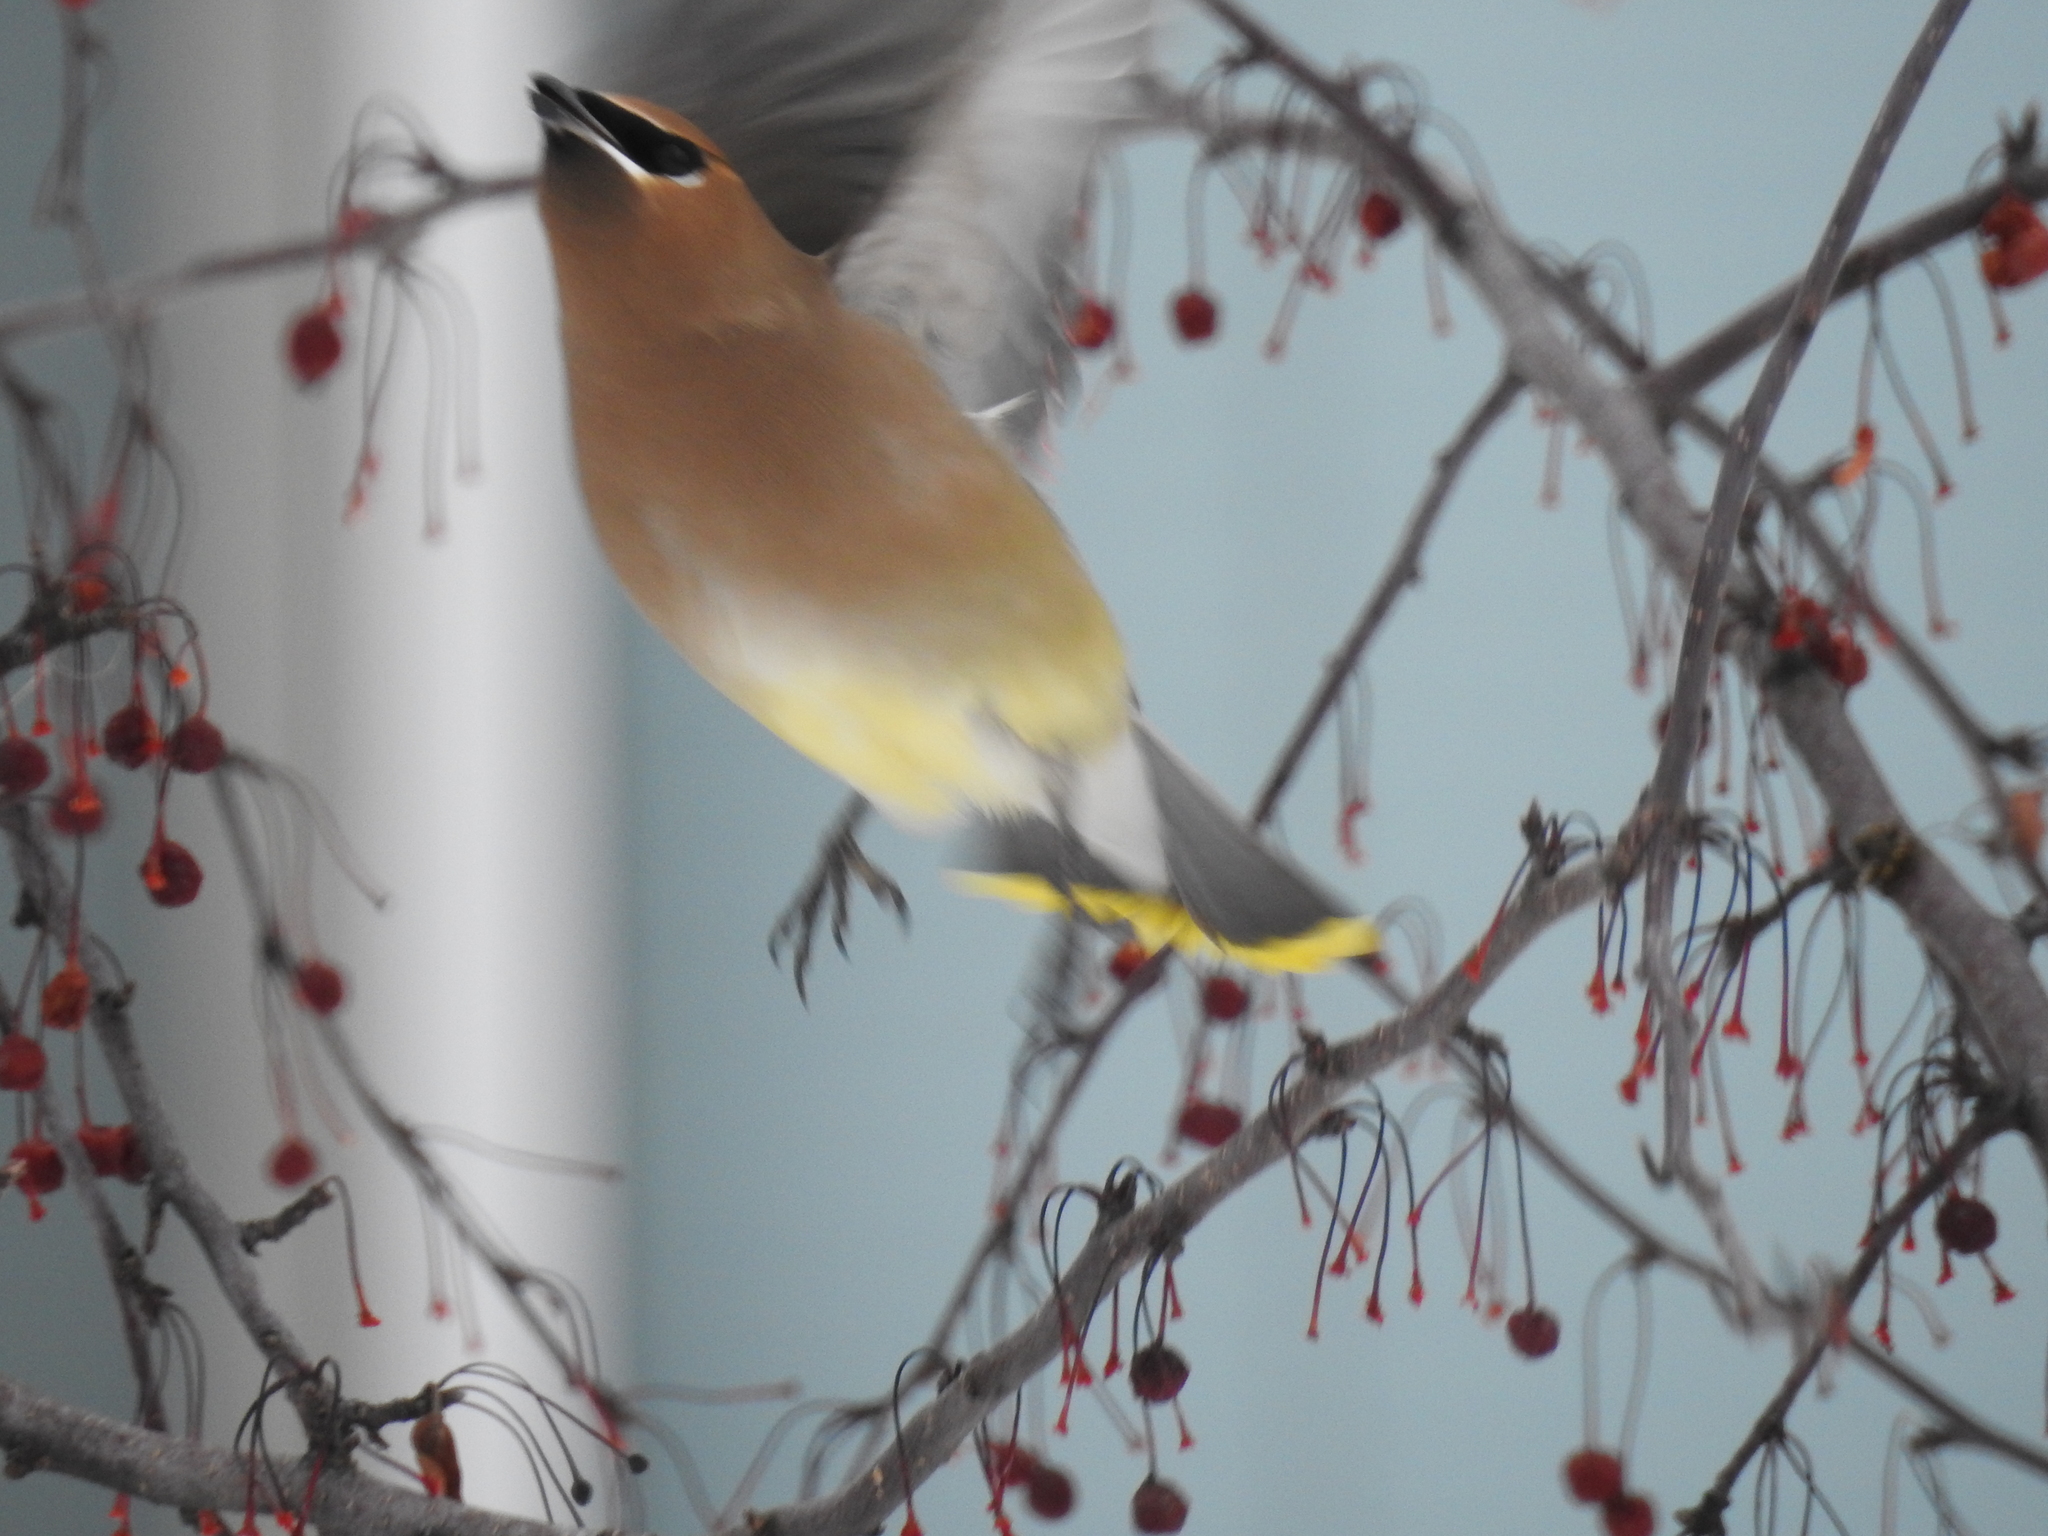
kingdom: Animalia
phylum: Chordata
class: Aves
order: Passeriformes
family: Bombycillidae
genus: Bombycilla
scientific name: Bombycilla cedrorum
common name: Cedar waxwing
